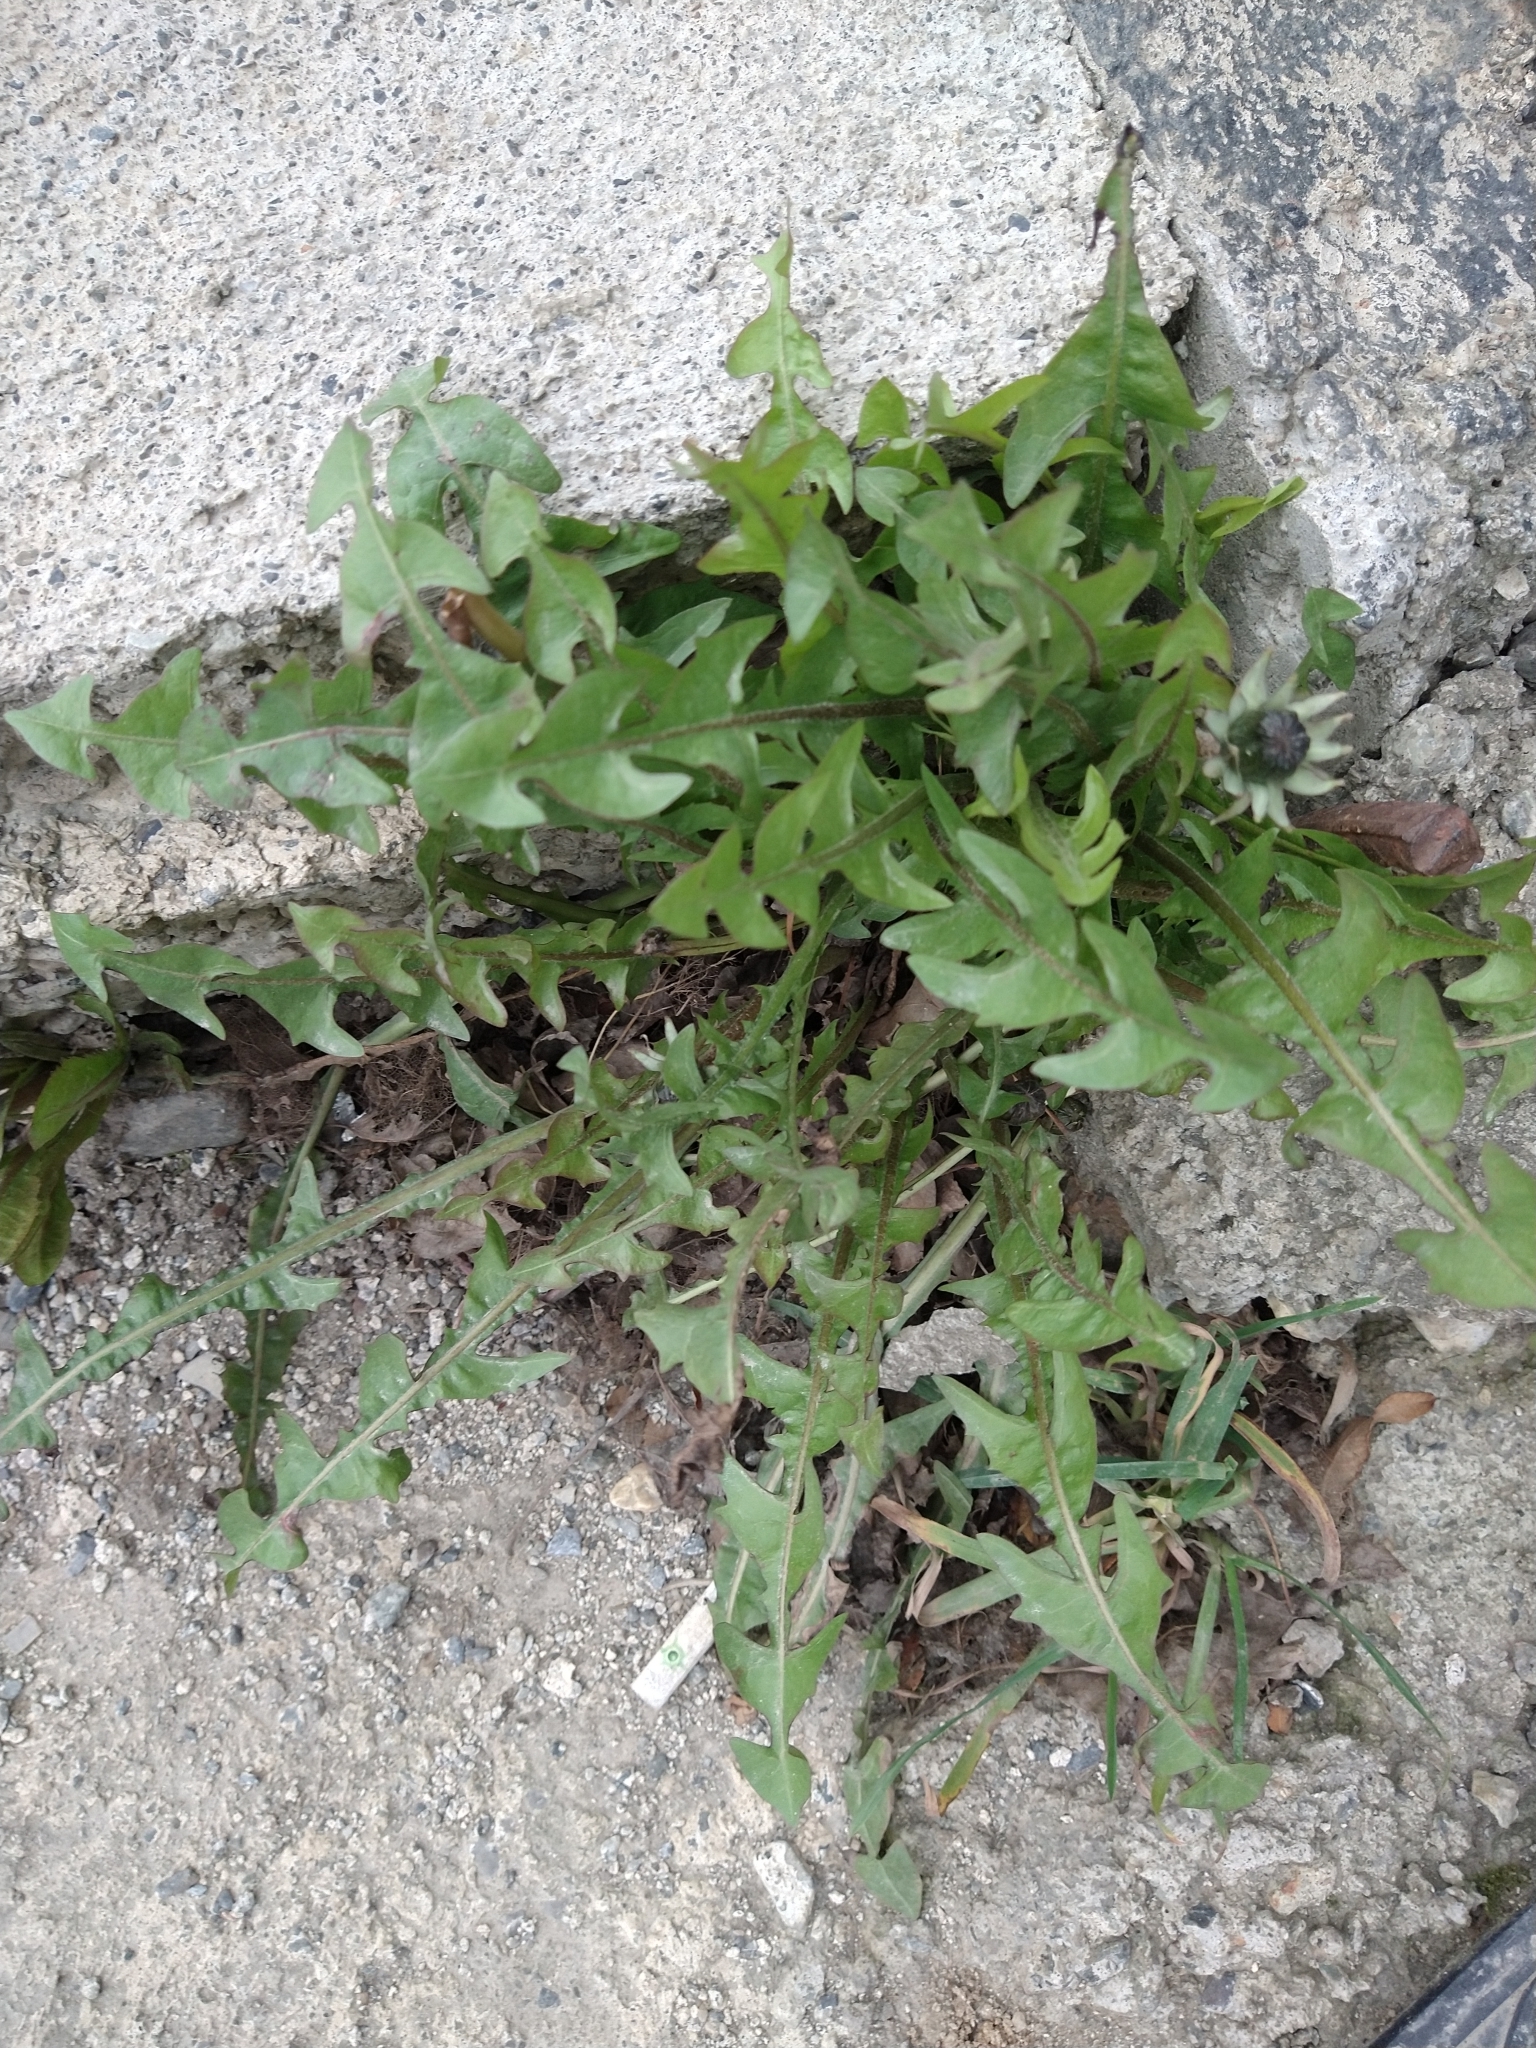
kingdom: Plantae
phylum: Tracheophyta
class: Magnoliopsida
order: Asterales
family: Asteraceae
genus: Taraxacum
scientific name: Taraxacum officinale
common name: Common dandelion
